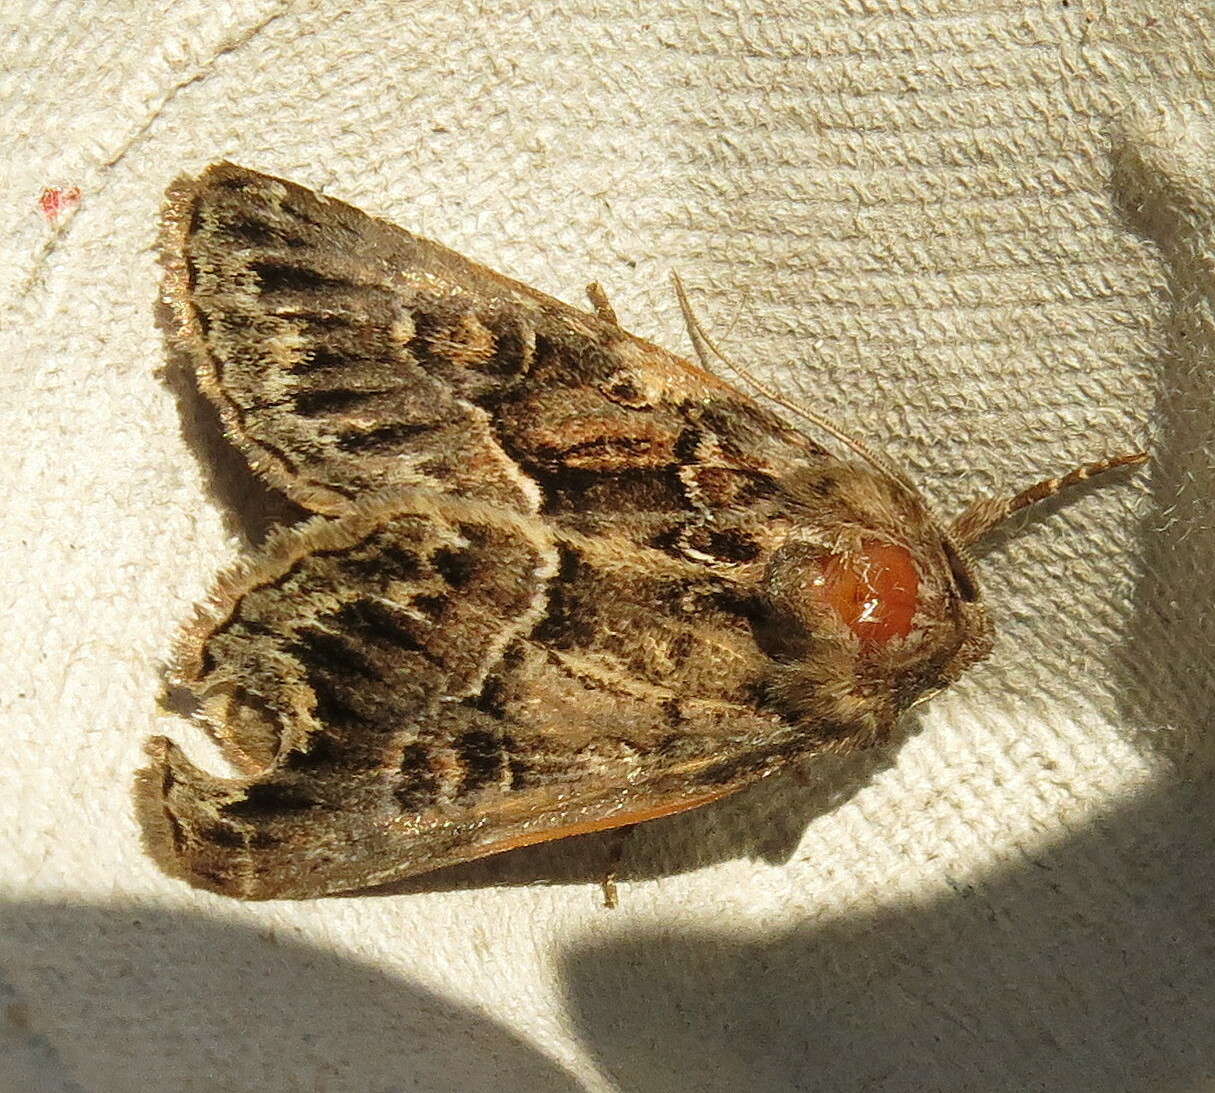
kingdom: Animalia
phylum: Arthropoda
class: Insecta
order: Lepidoptera
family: Noctuidae
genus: Thalpophila
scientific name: Thalpophila matura
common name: Straw underwing
